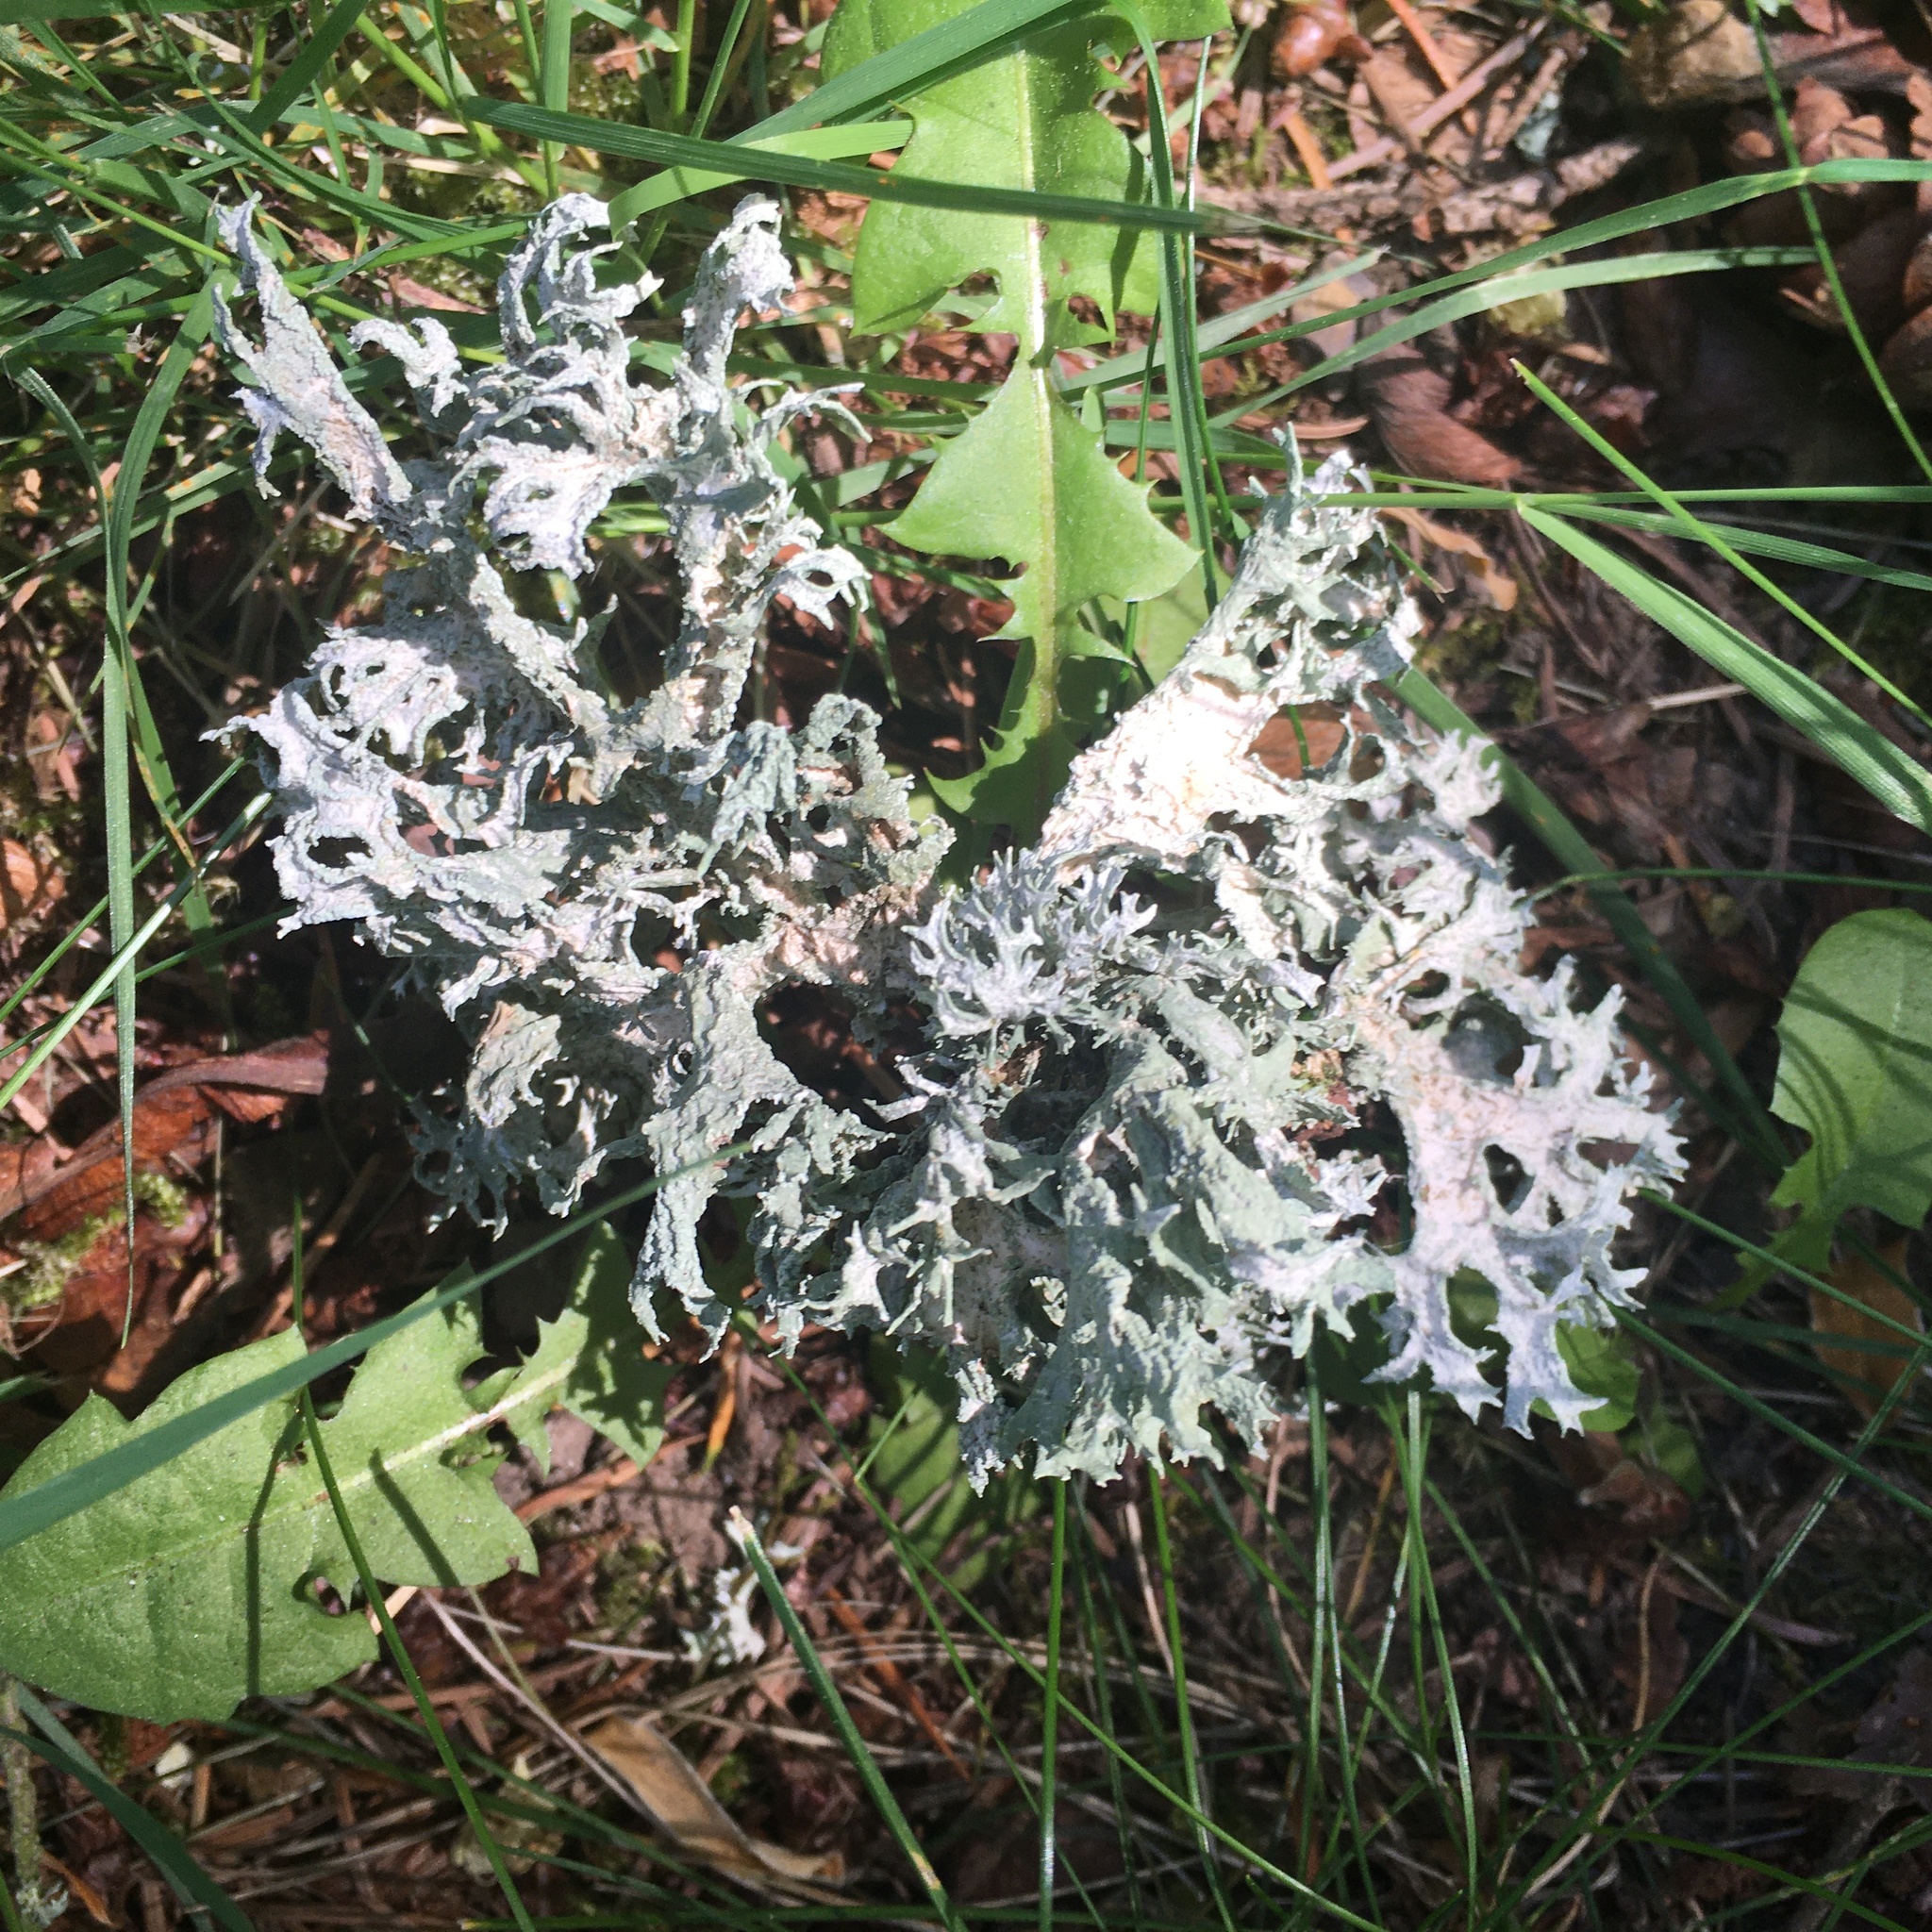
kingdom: Fungi
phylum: Ascomycota
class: Lecanoromycetes
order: Lecanorales
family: Parmeliaceae
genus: Evernia
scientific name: Evernia prunastri
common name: Oak moss
